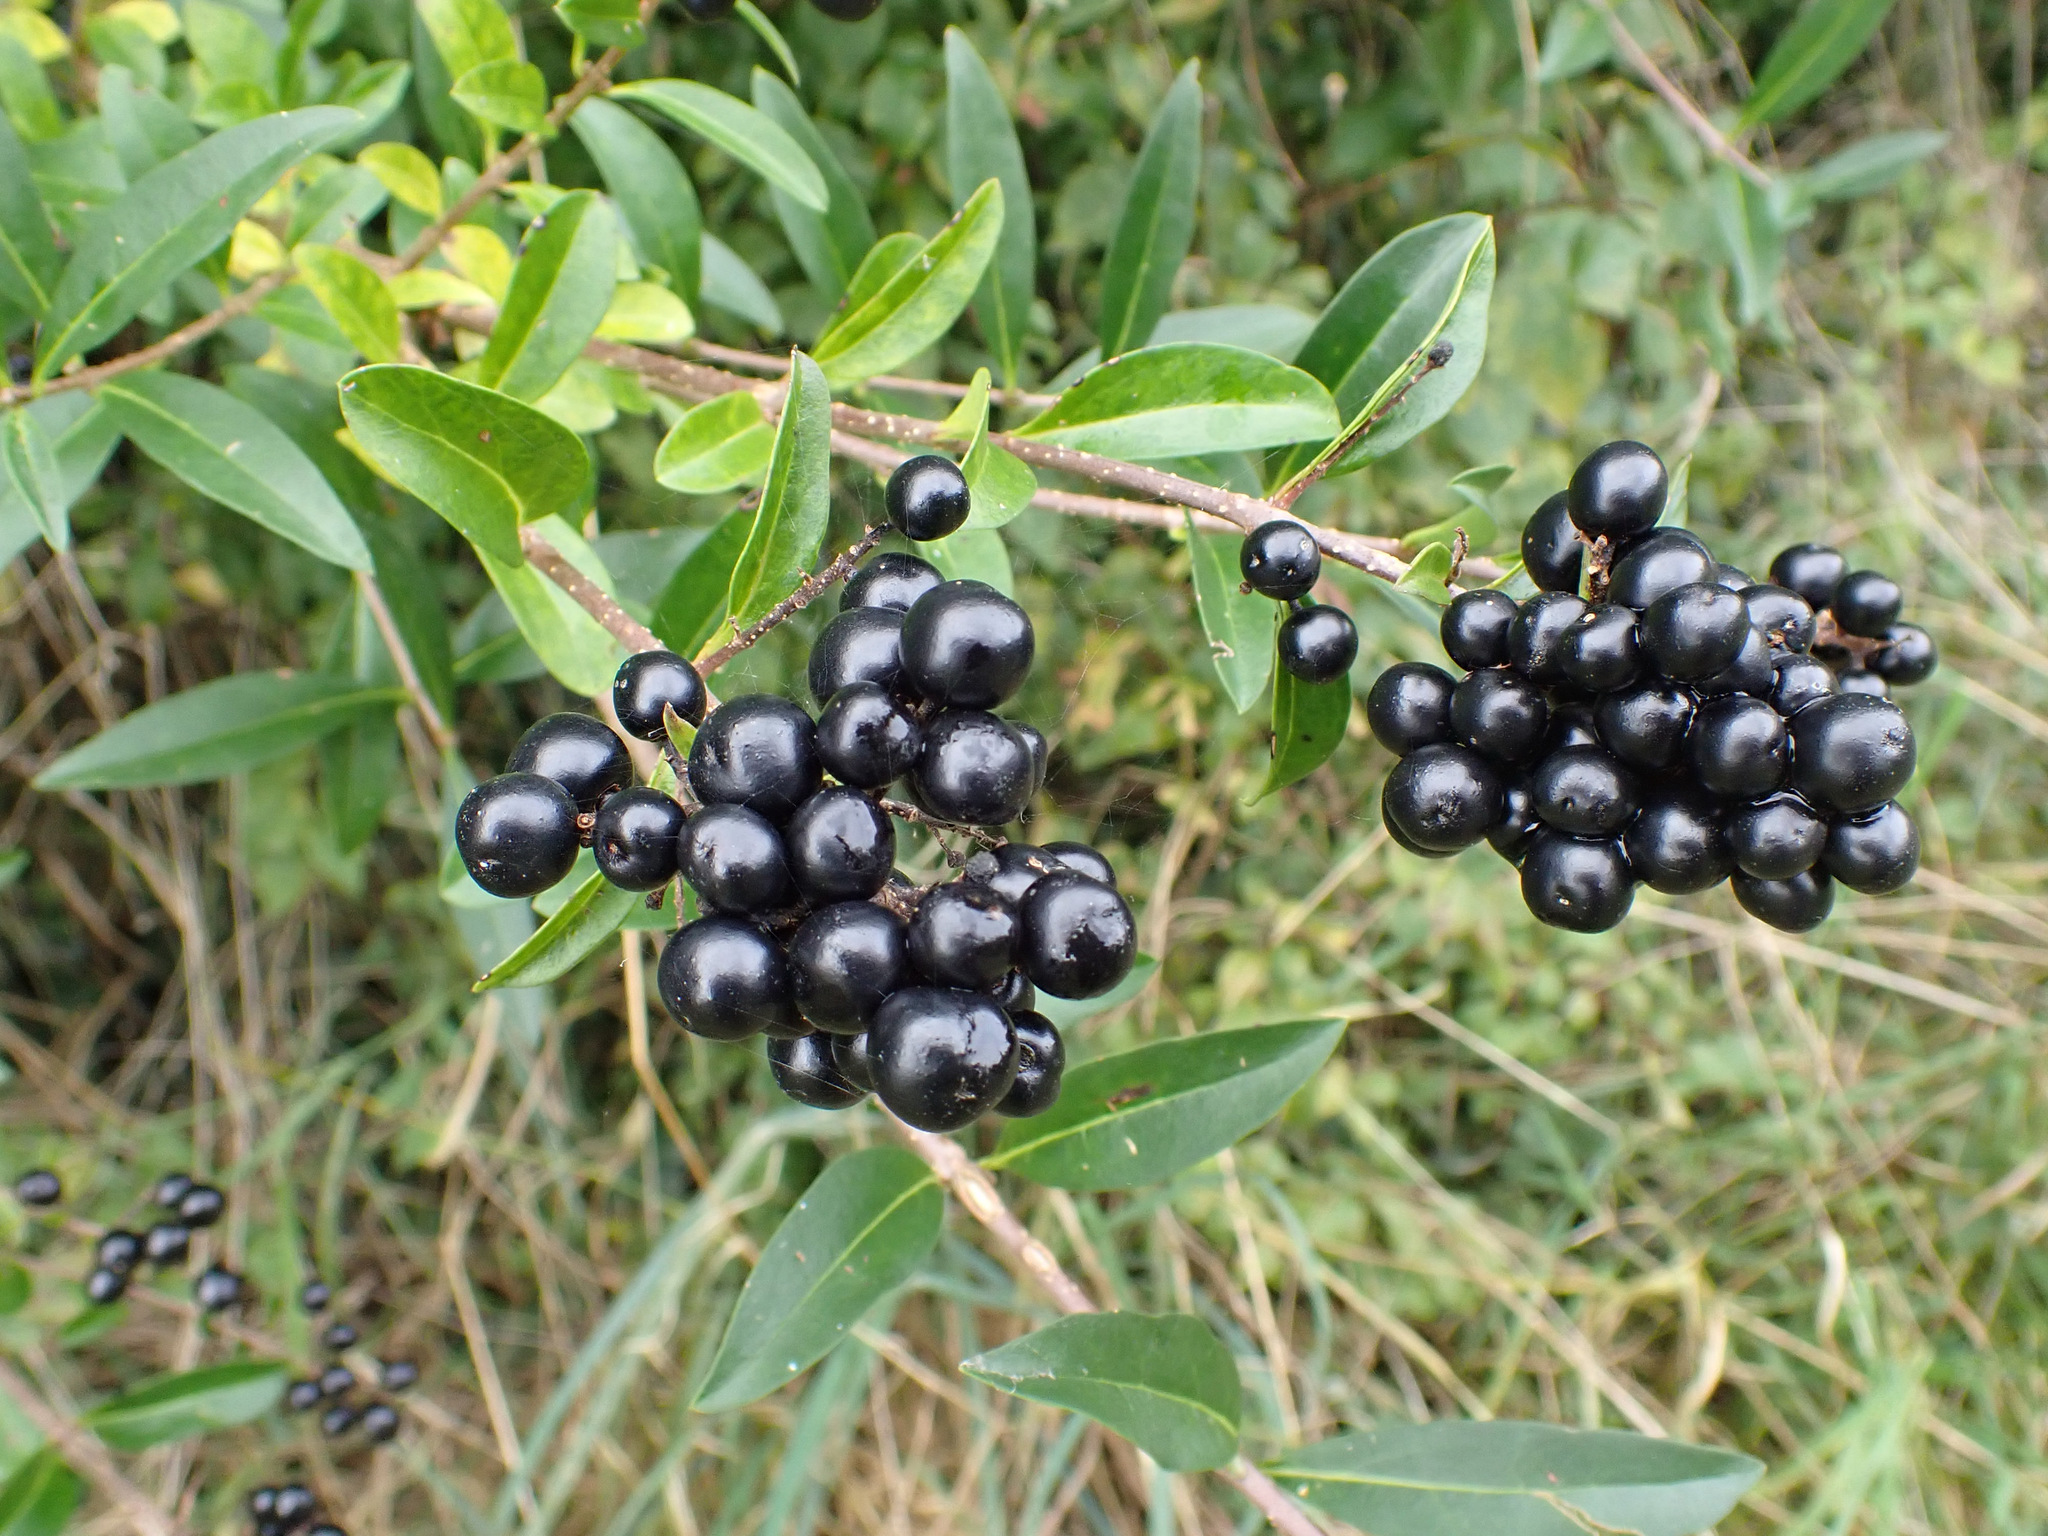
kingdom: Plantae
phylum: Tracheophyta
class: Magnoliopsida
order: Lamiales
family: Oleaceae
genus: Ligustrum
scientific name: Ligustrum vulgare
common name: Wild privet
